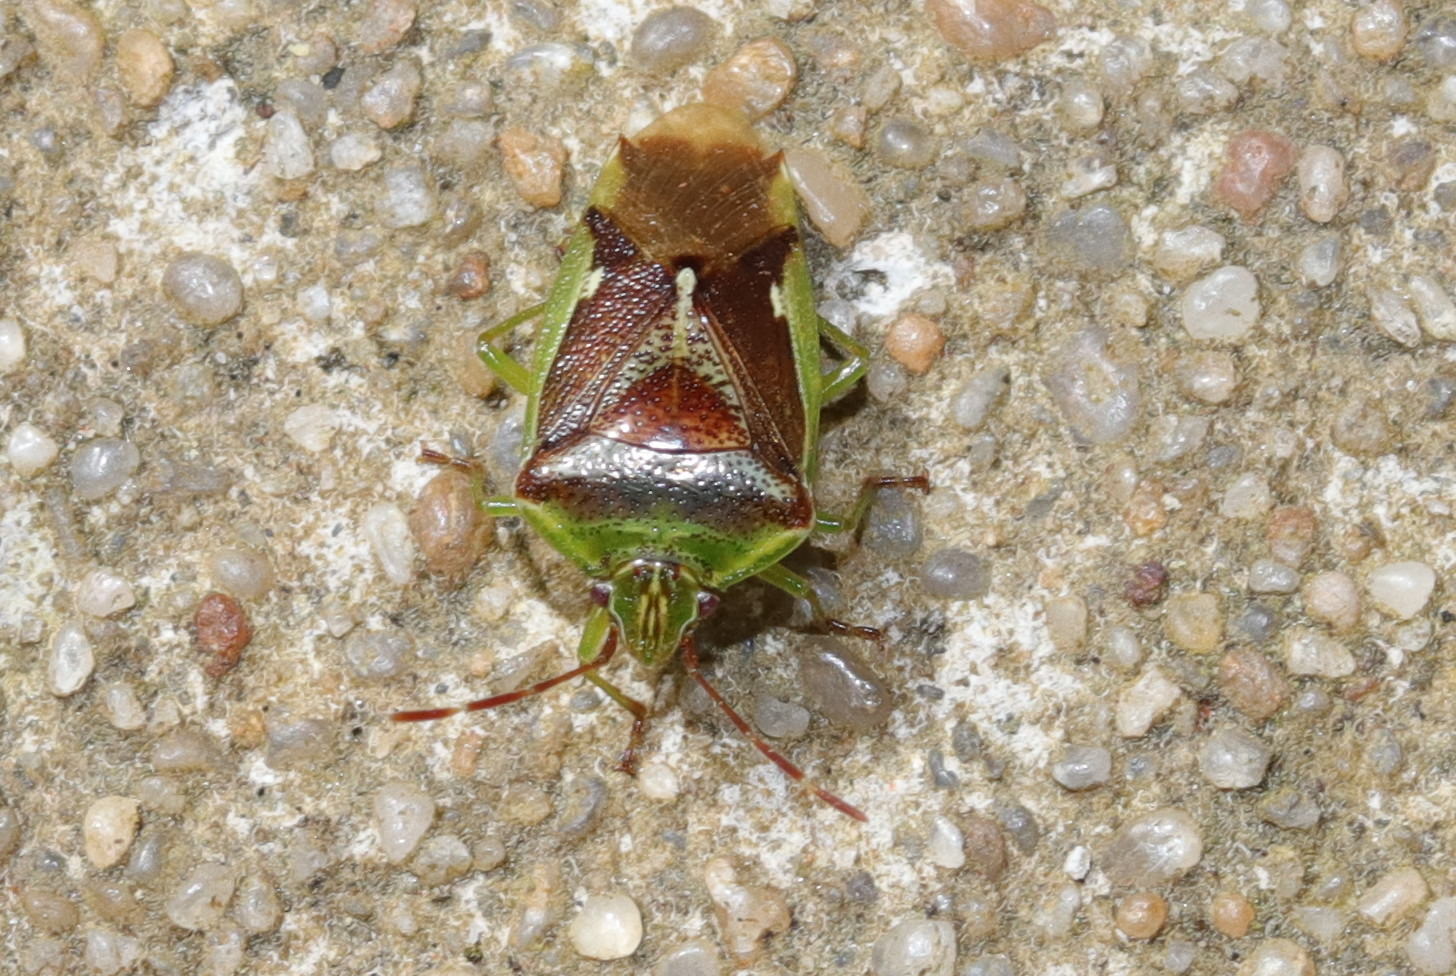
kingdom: Animalia
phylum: Arthropoda
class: Insecta
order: Hemiptera
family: Acanthosomatidae
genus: Oncacontias
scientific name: Oncacontias vittatus
